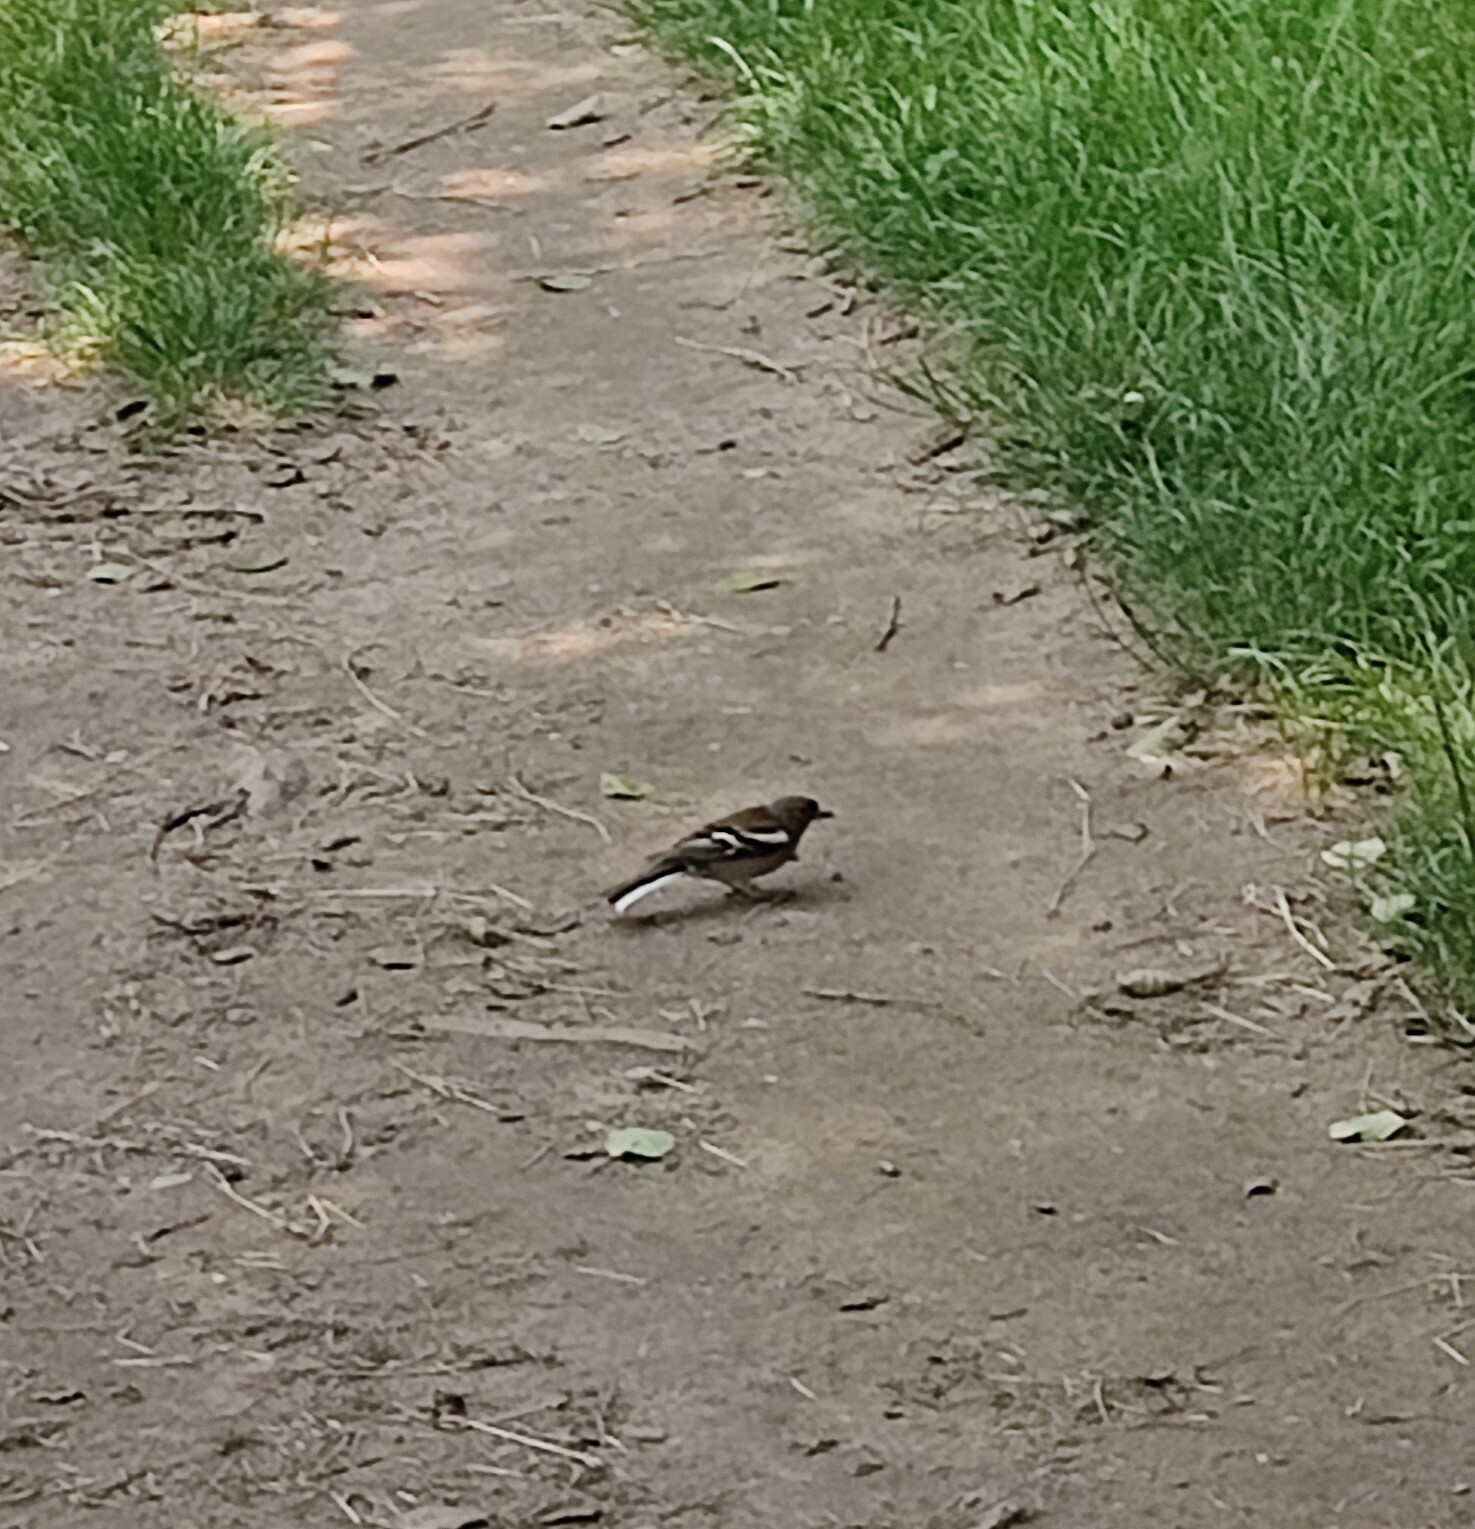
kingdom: Animalia
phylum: Chordata
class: Aves
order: Passeriformes
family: Fringillidae
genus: Fringilla
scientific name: Fringilla coelebs
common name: Common chaffinch
